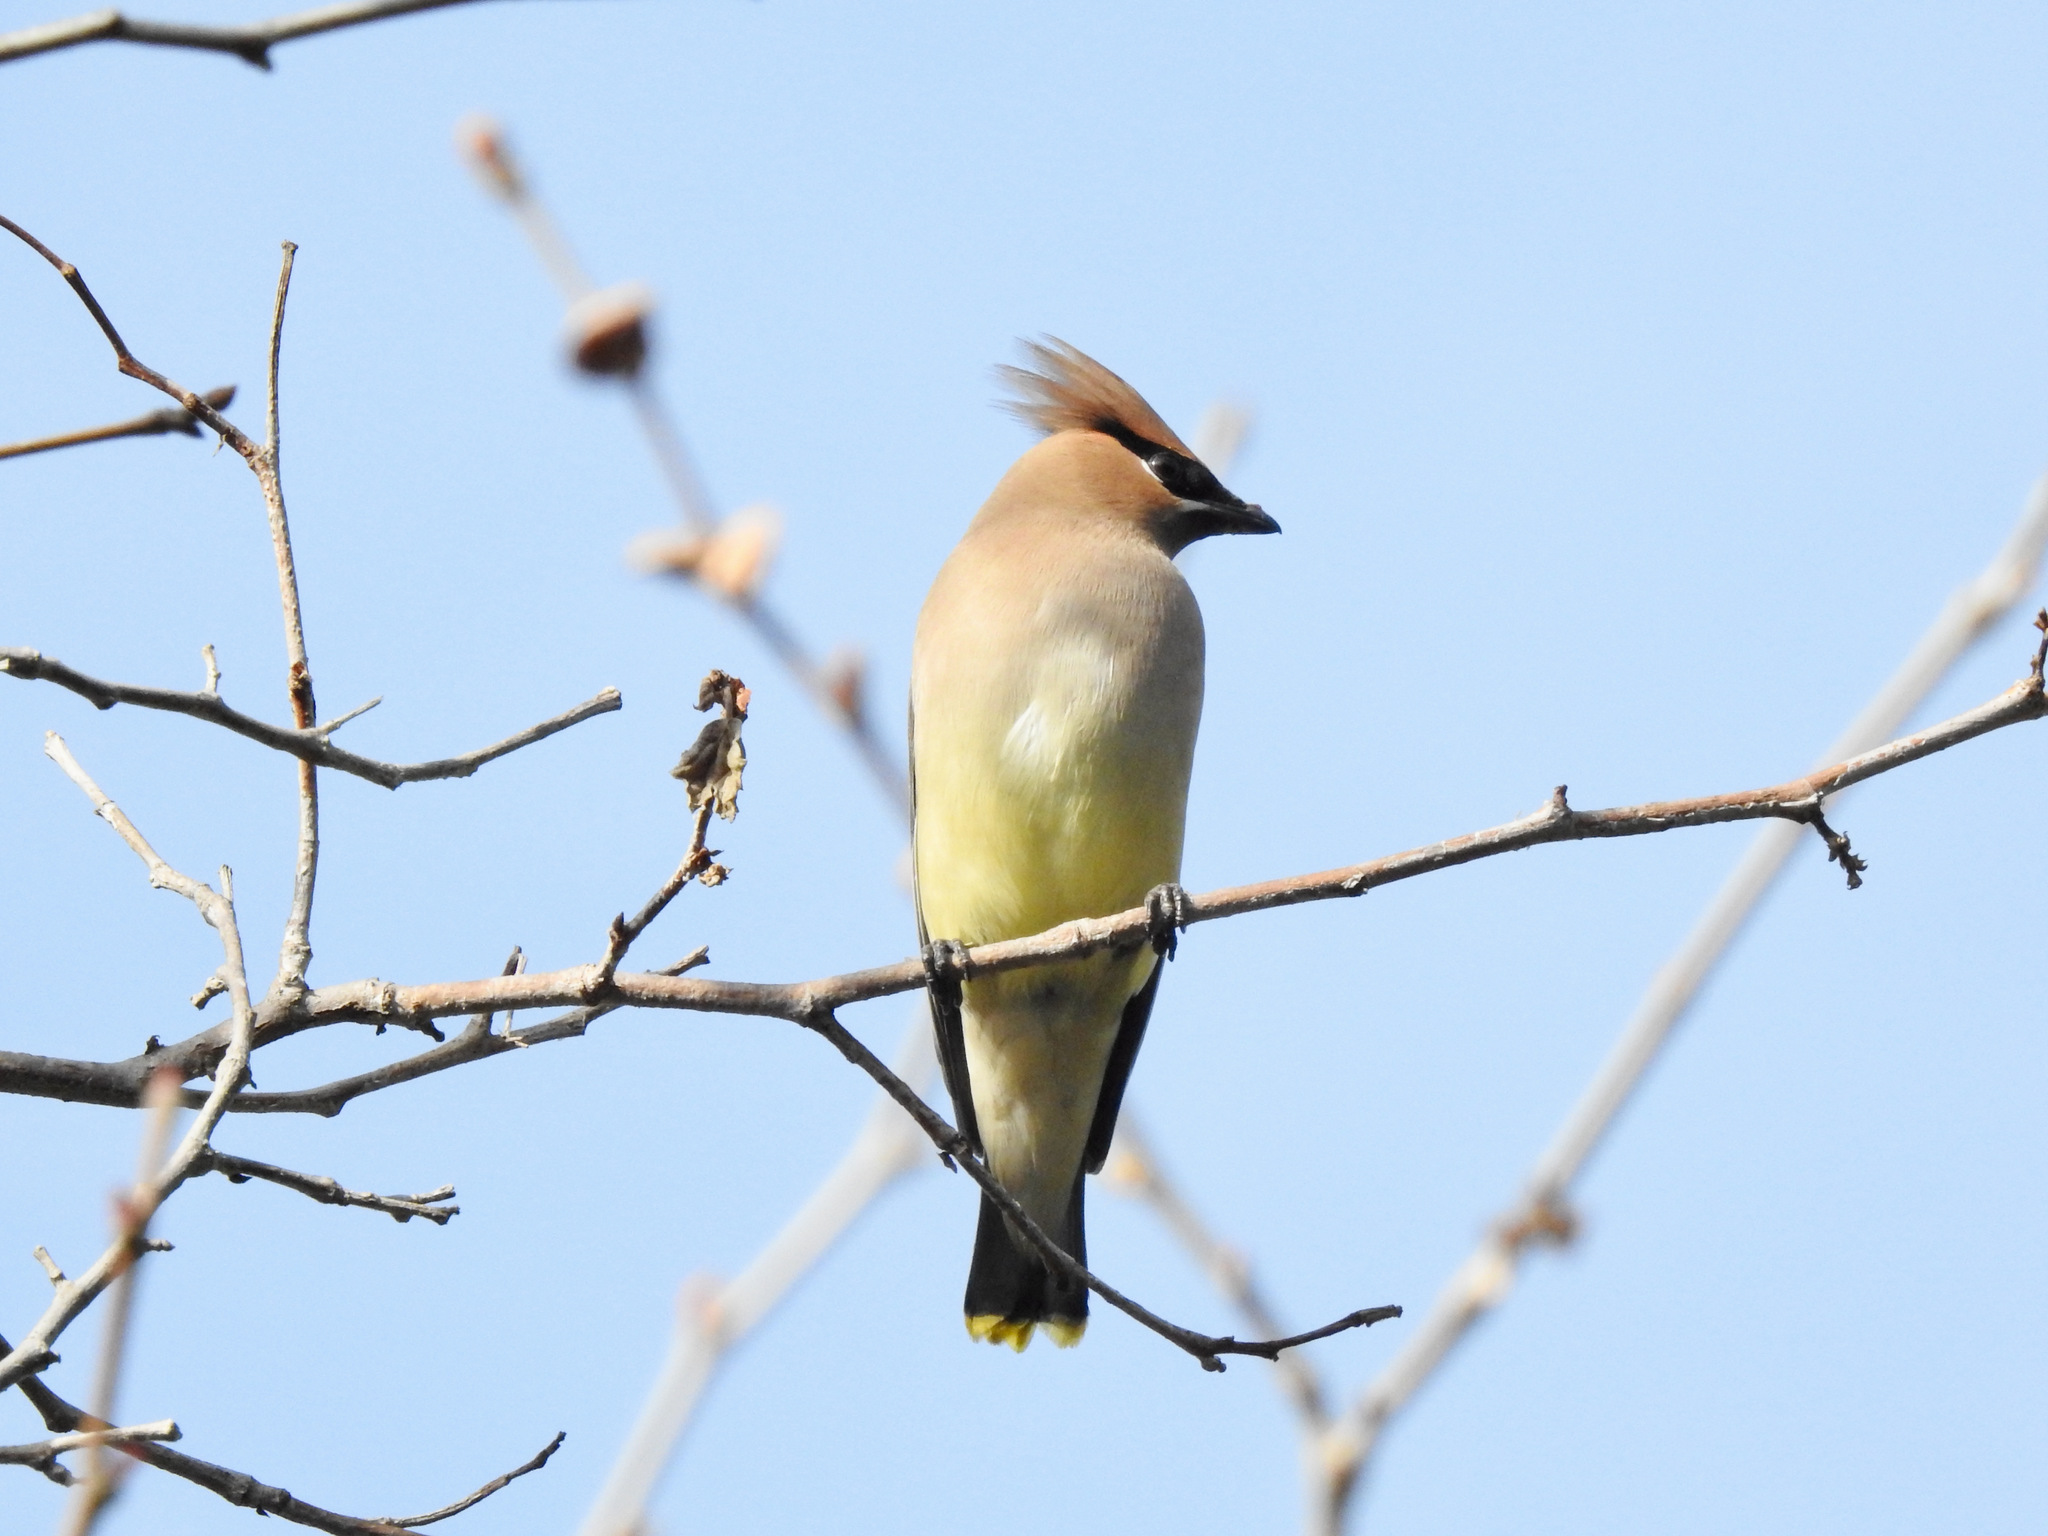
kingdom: Animalia
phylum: Chordata
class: Aves
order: Passeriformes
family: Bombycillidae
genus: Bombycilla
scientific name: Bombycilla cedrorum
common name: Cedar waxwing
